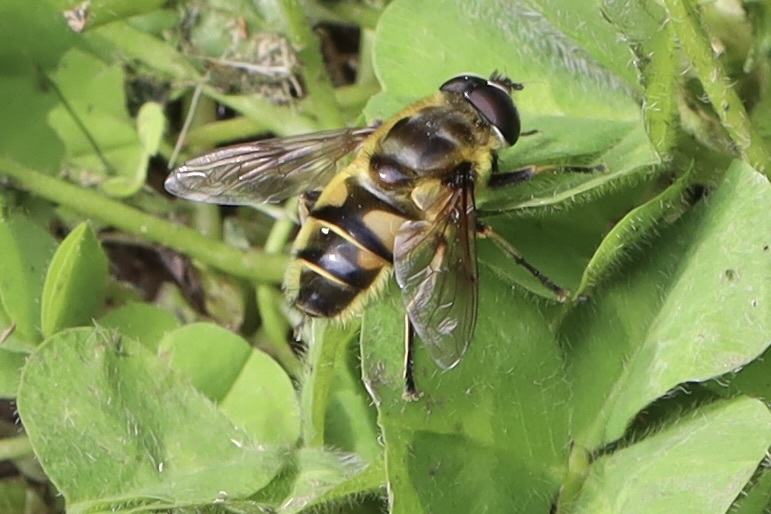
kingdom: Animalia
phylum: Arthropoda
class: Insecta
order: Diptera
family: Syrphidae
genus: Myathropa
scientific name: Myathropa florea
